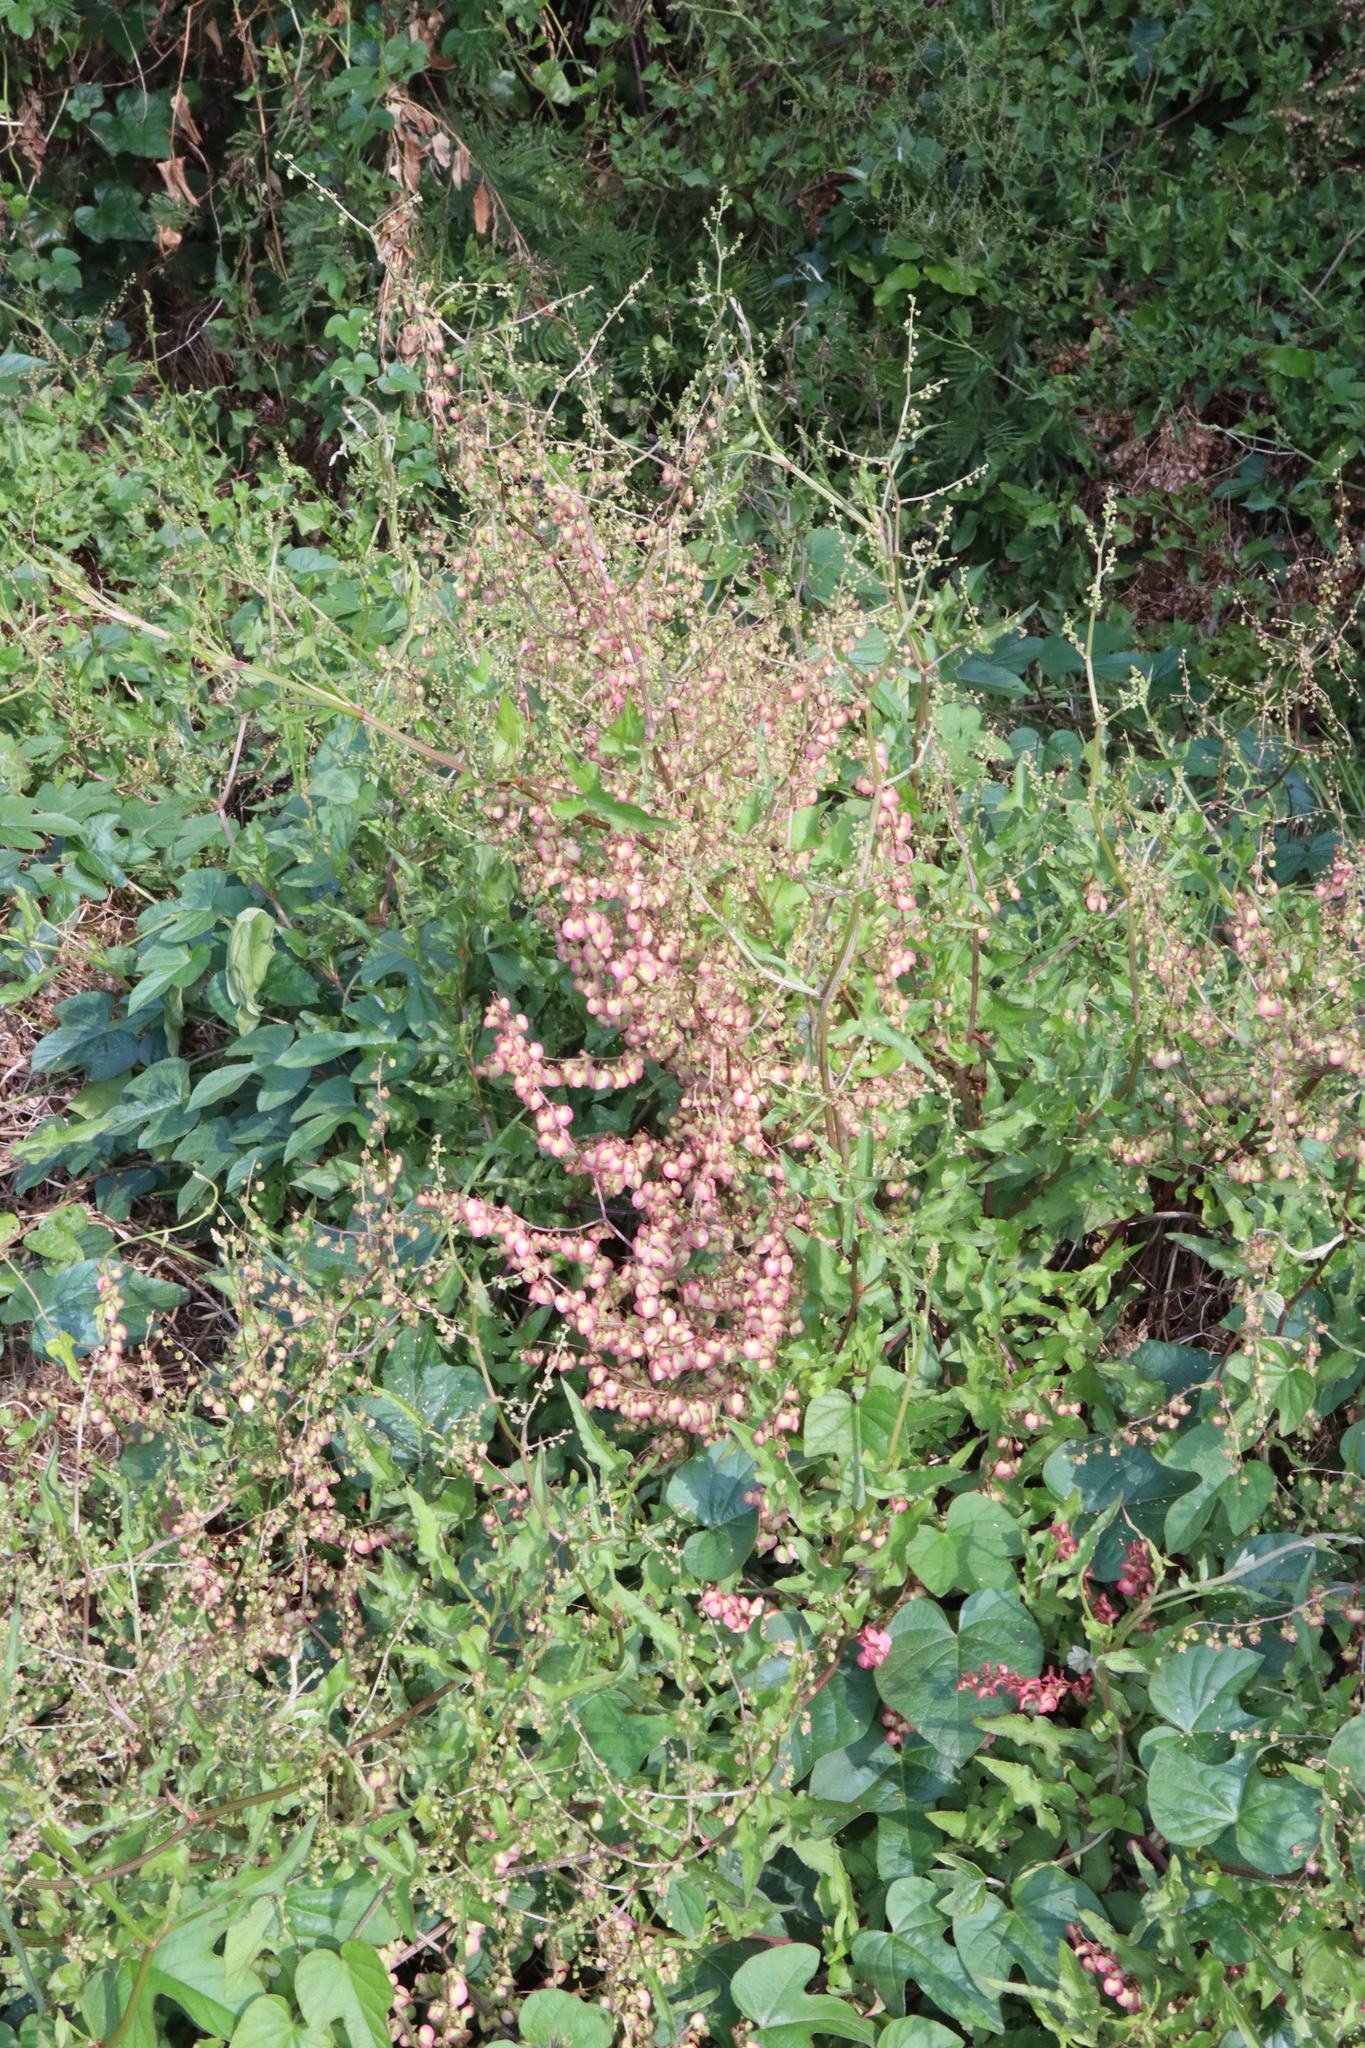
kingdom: Plantae
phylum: Tracheophyta
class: Magnoliopsida
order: Caryophyllales
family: Polygonaceae
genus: Rumex
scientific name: Rumex sagittatus
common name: Climbing dock
